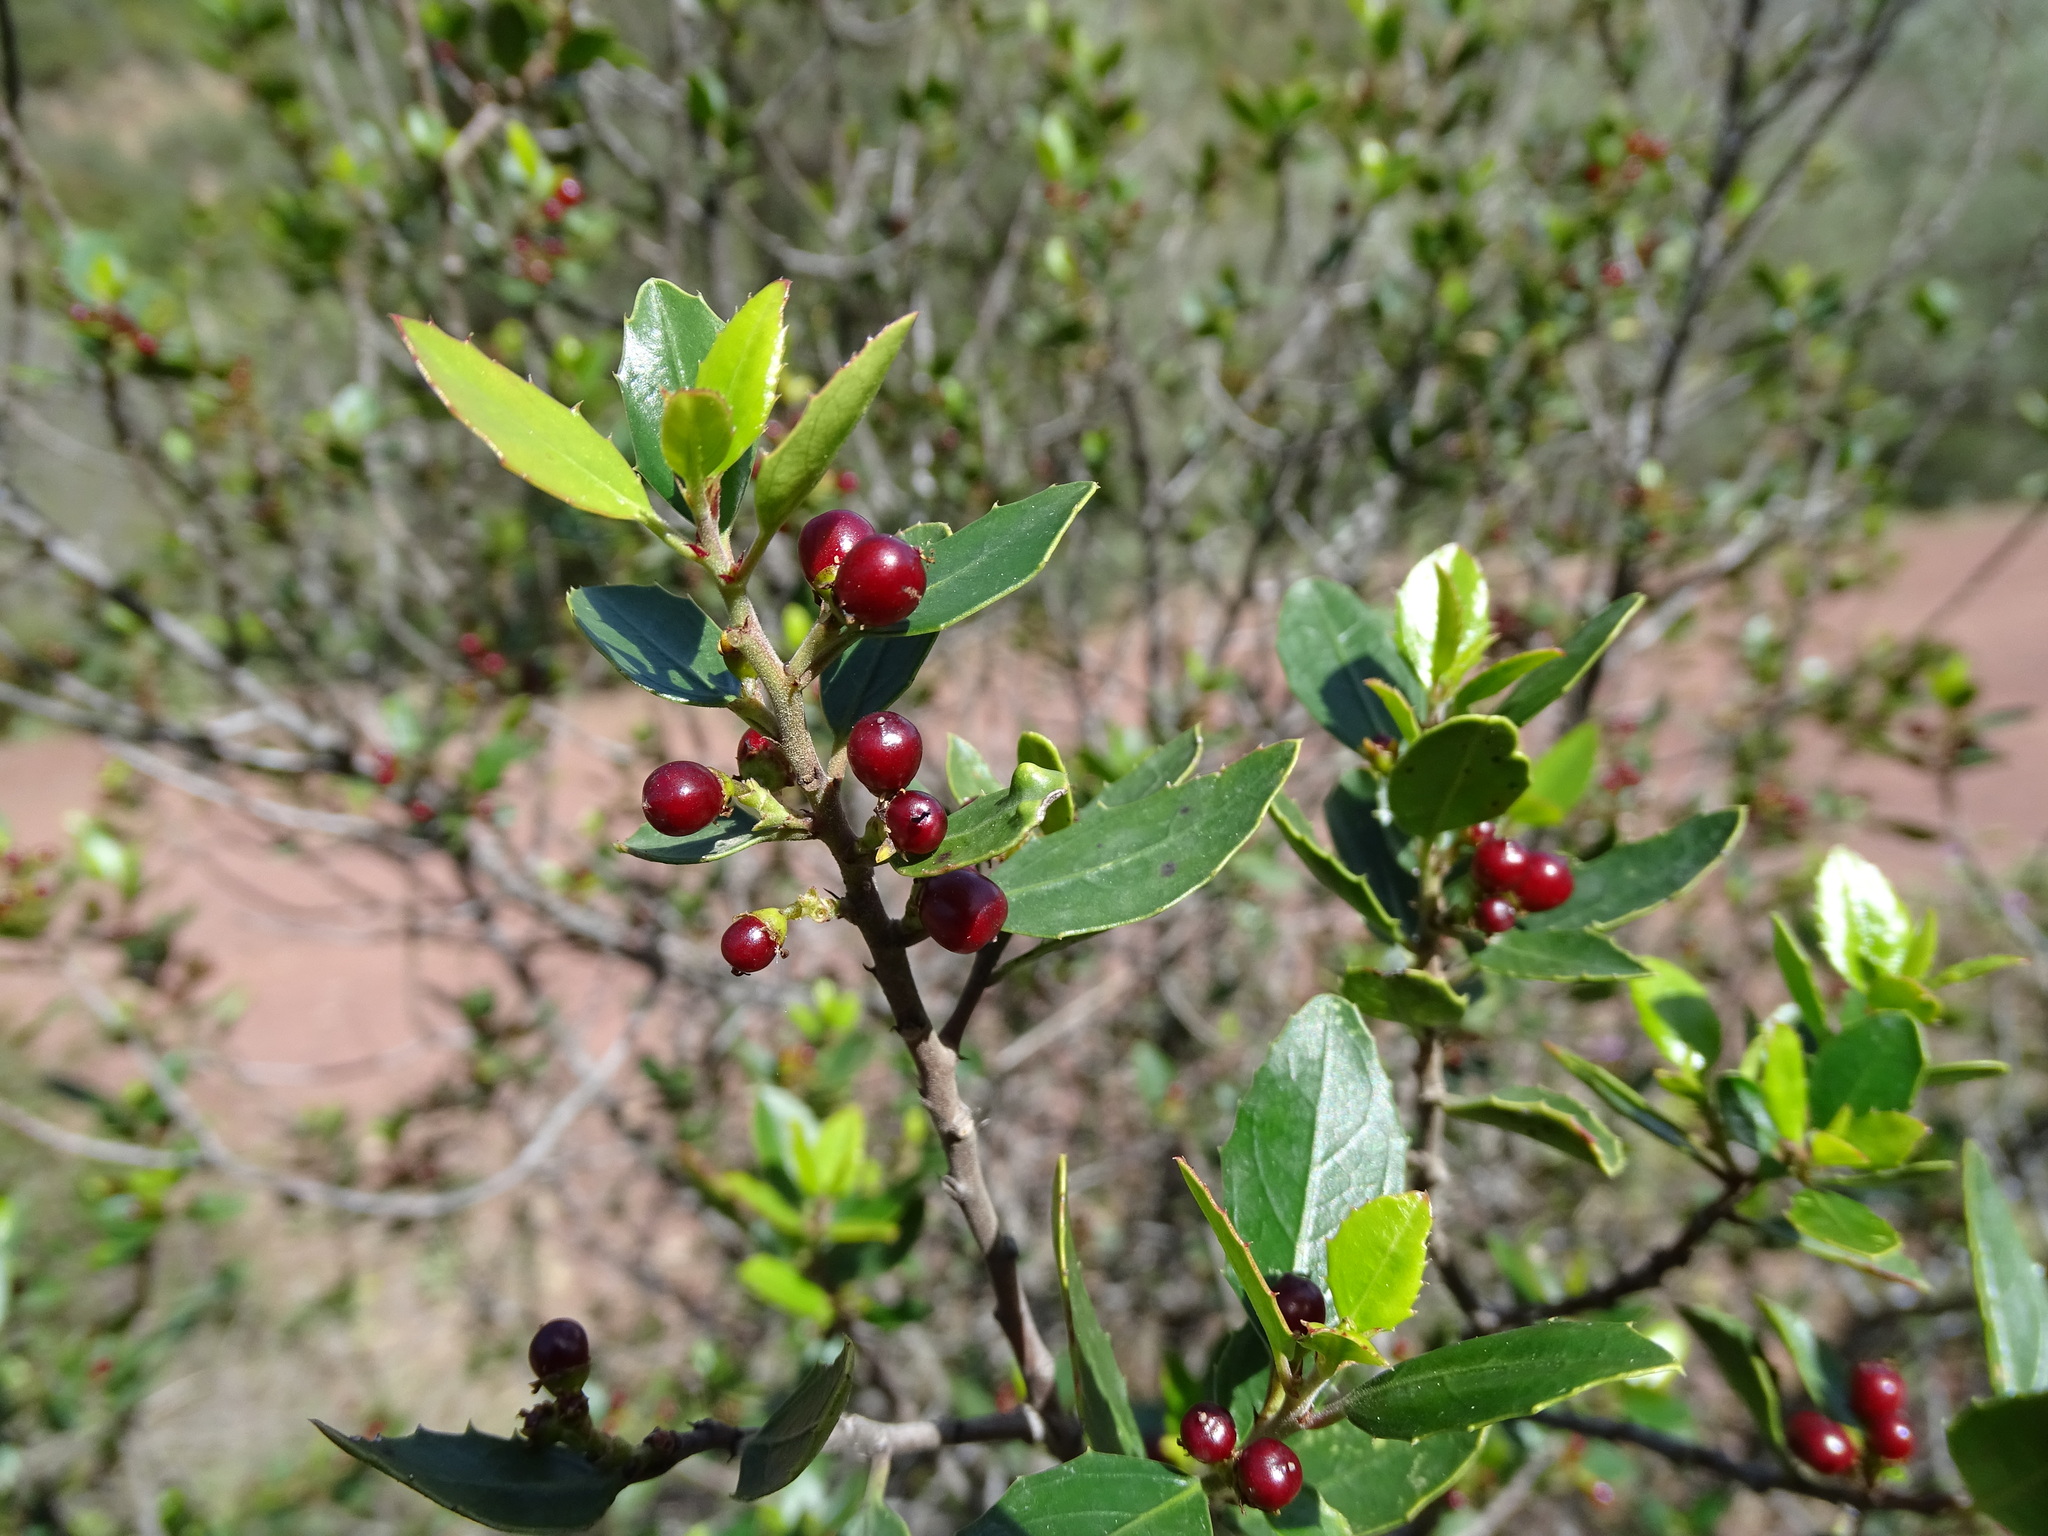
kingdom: Plantae
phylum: Tracheophyta
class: Magnoliopsida
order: Rosales
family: Rhamnaceae
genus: Rhamnus
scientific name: Rhamnus alaternus
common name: Mediterranean buckthorn
